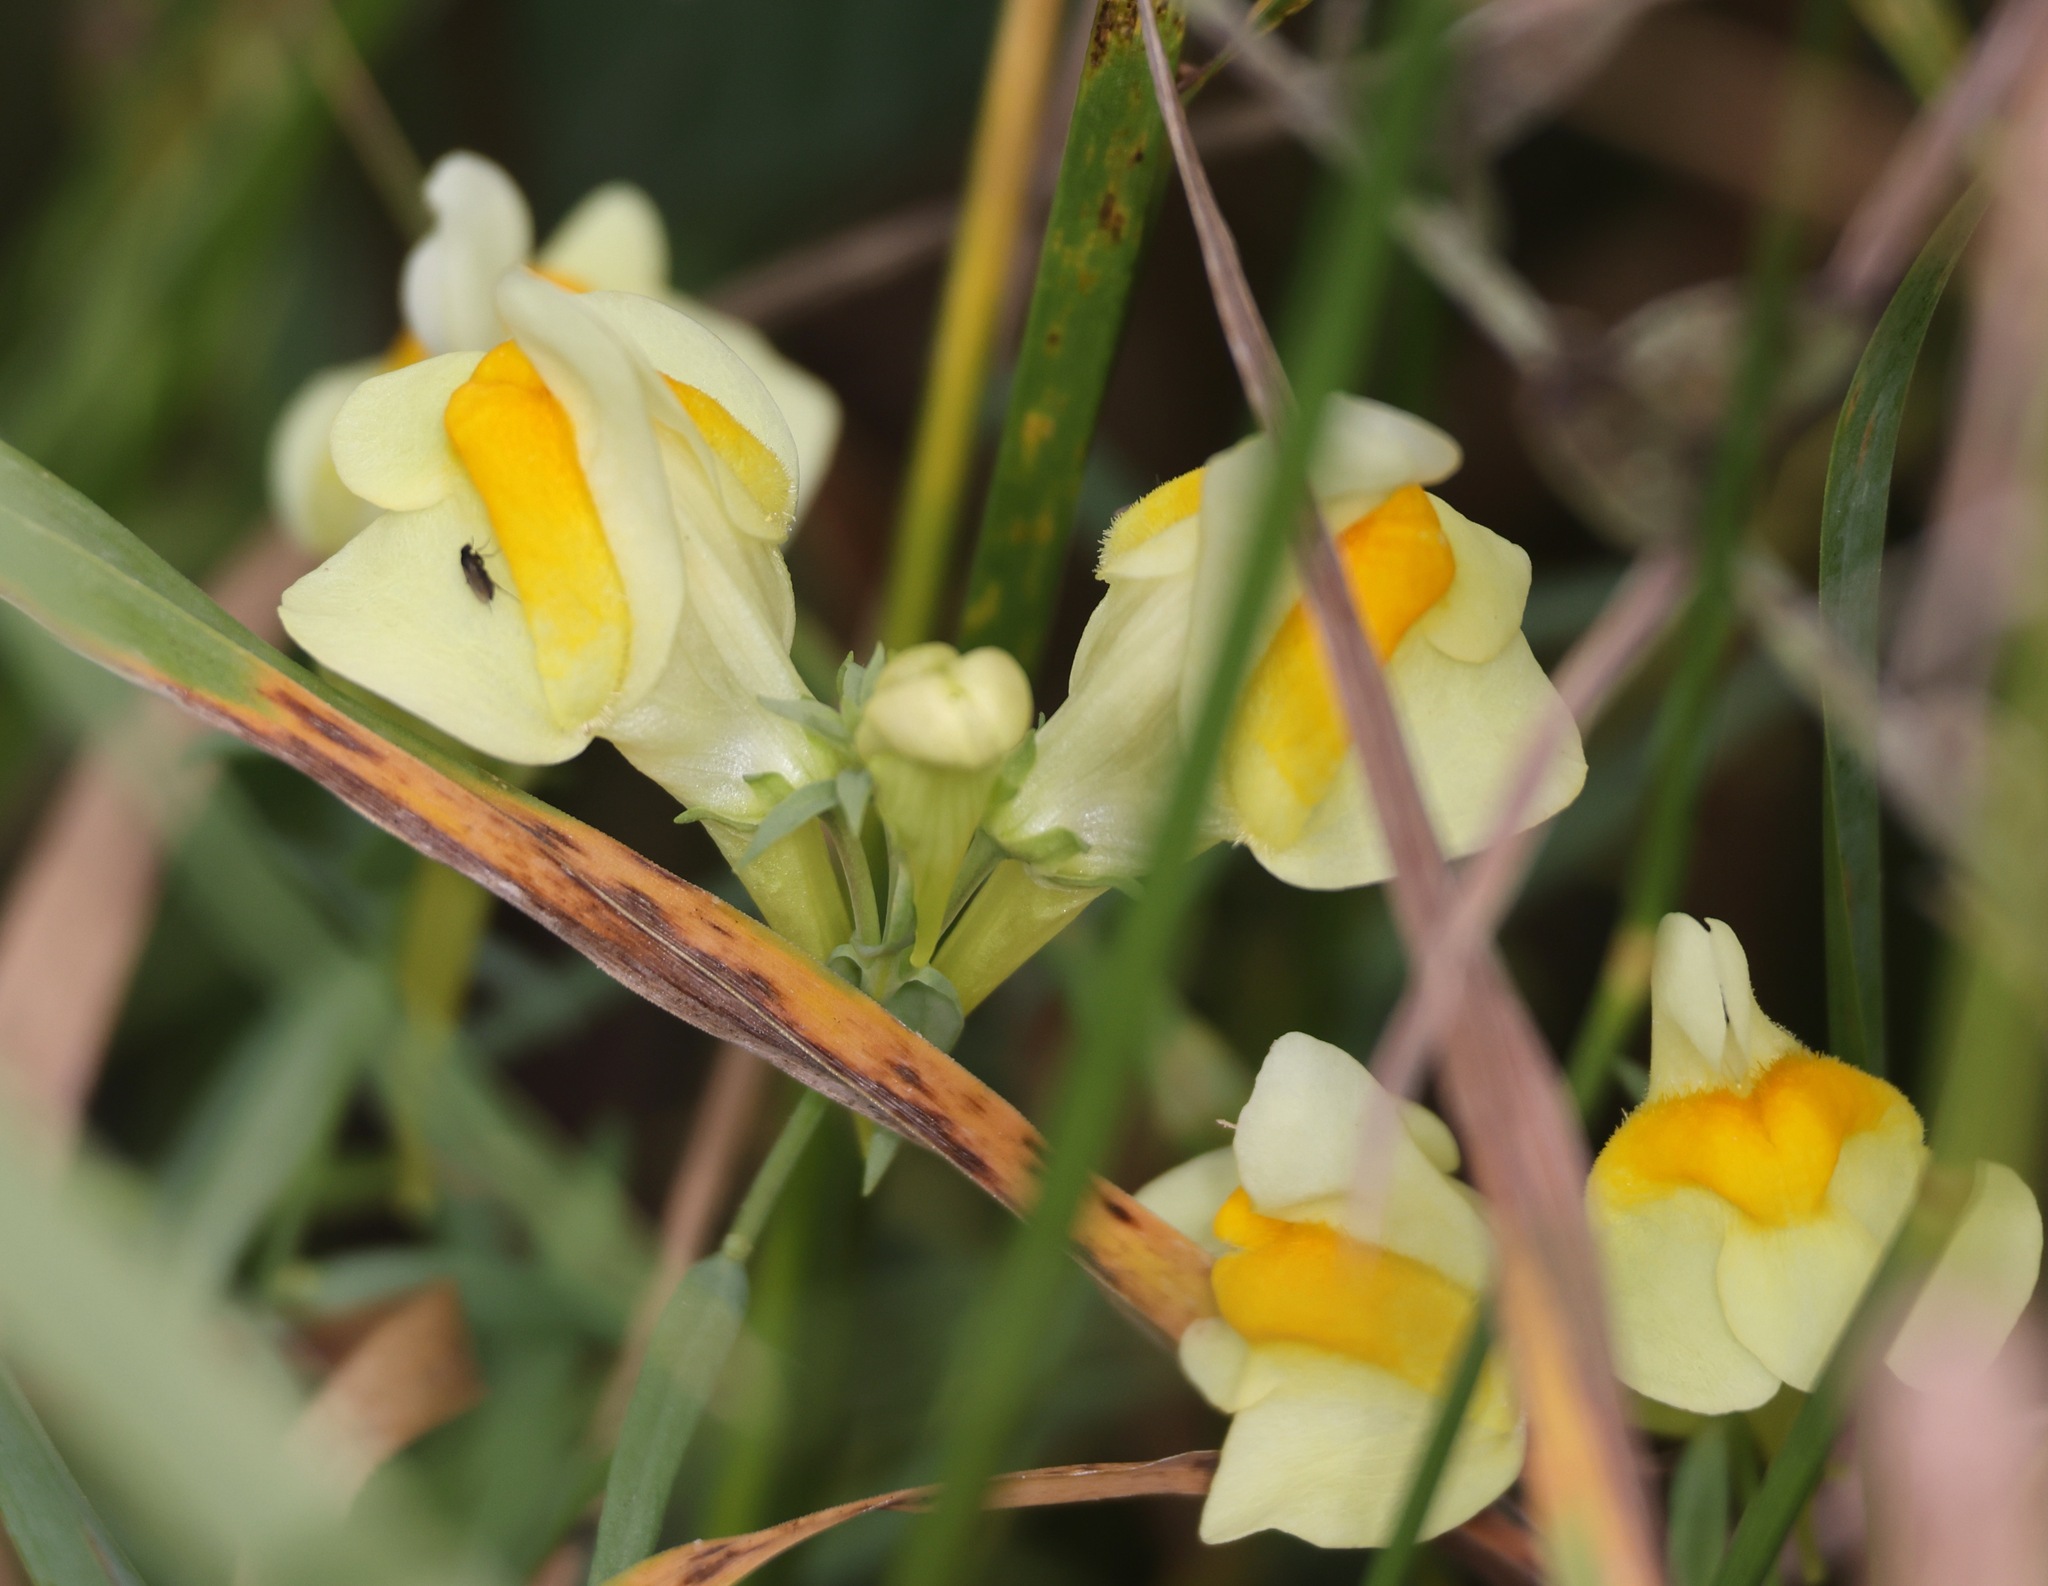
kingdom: Plantae
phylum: Tracheophyta
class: Magnoliopsida
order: Lamiales
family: Plantaginaceae
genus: Linaria
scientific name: Linaria vulgaris
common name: Butter and eggs
